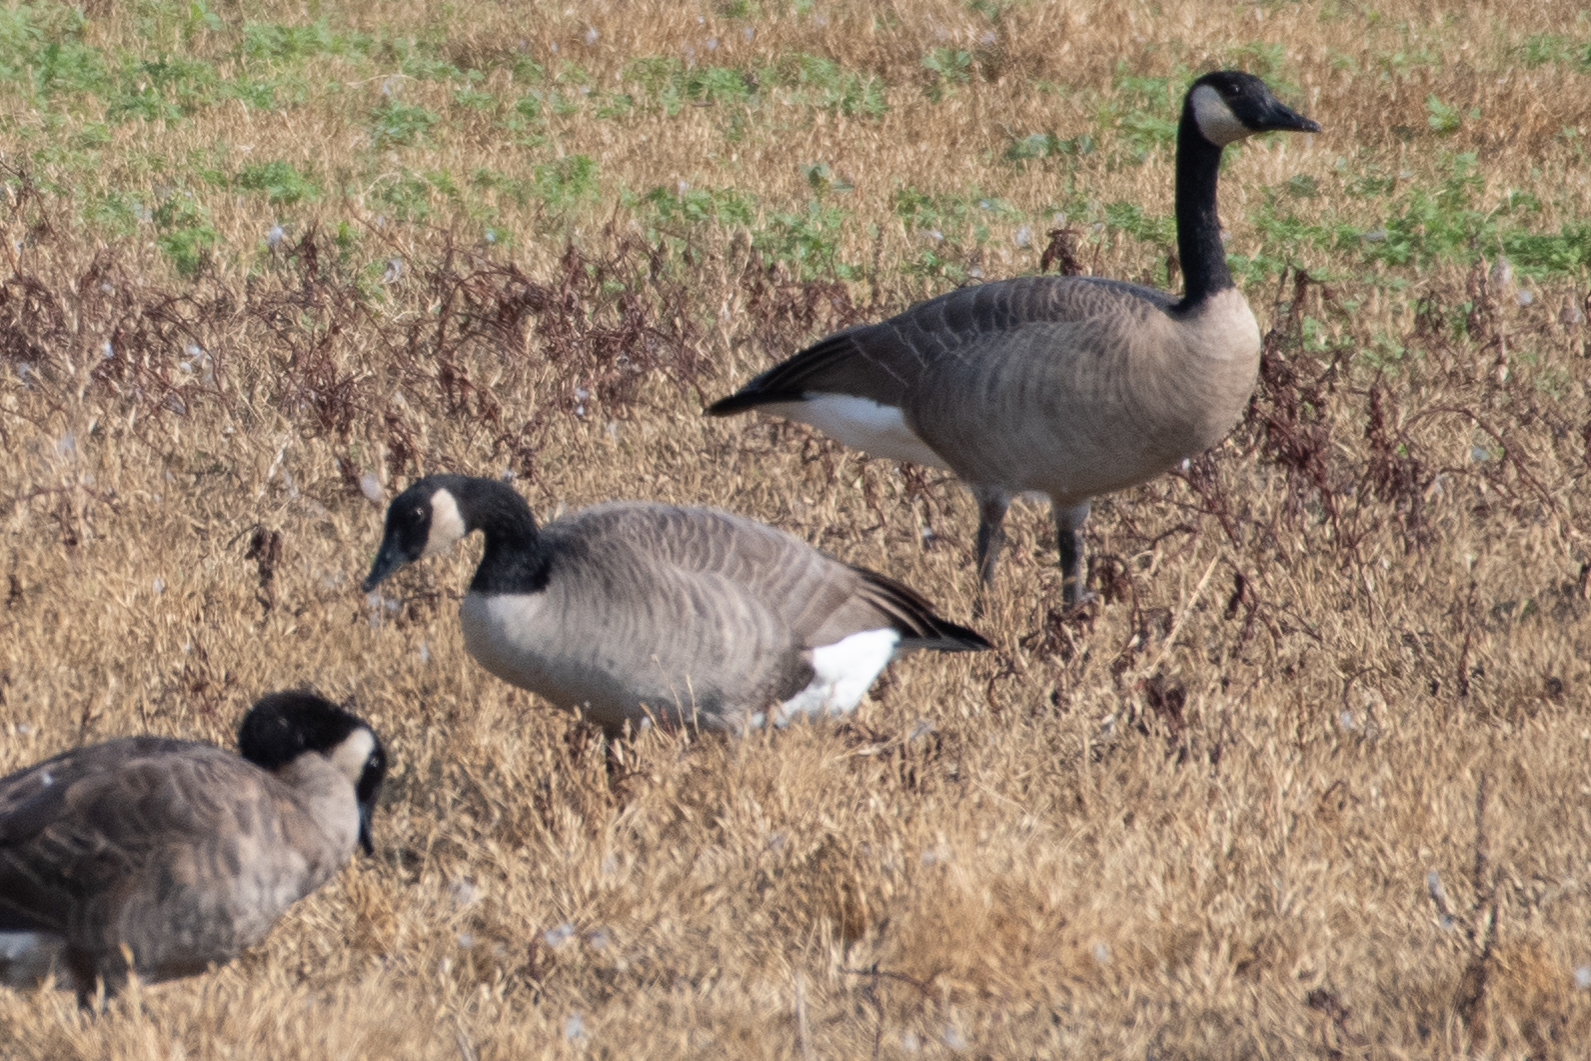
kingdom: Animalia
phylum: Chordata
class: Aves
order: Anseriformes
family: Anatidae
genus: Branta
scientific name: Branta canadensis
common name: Canada goose
